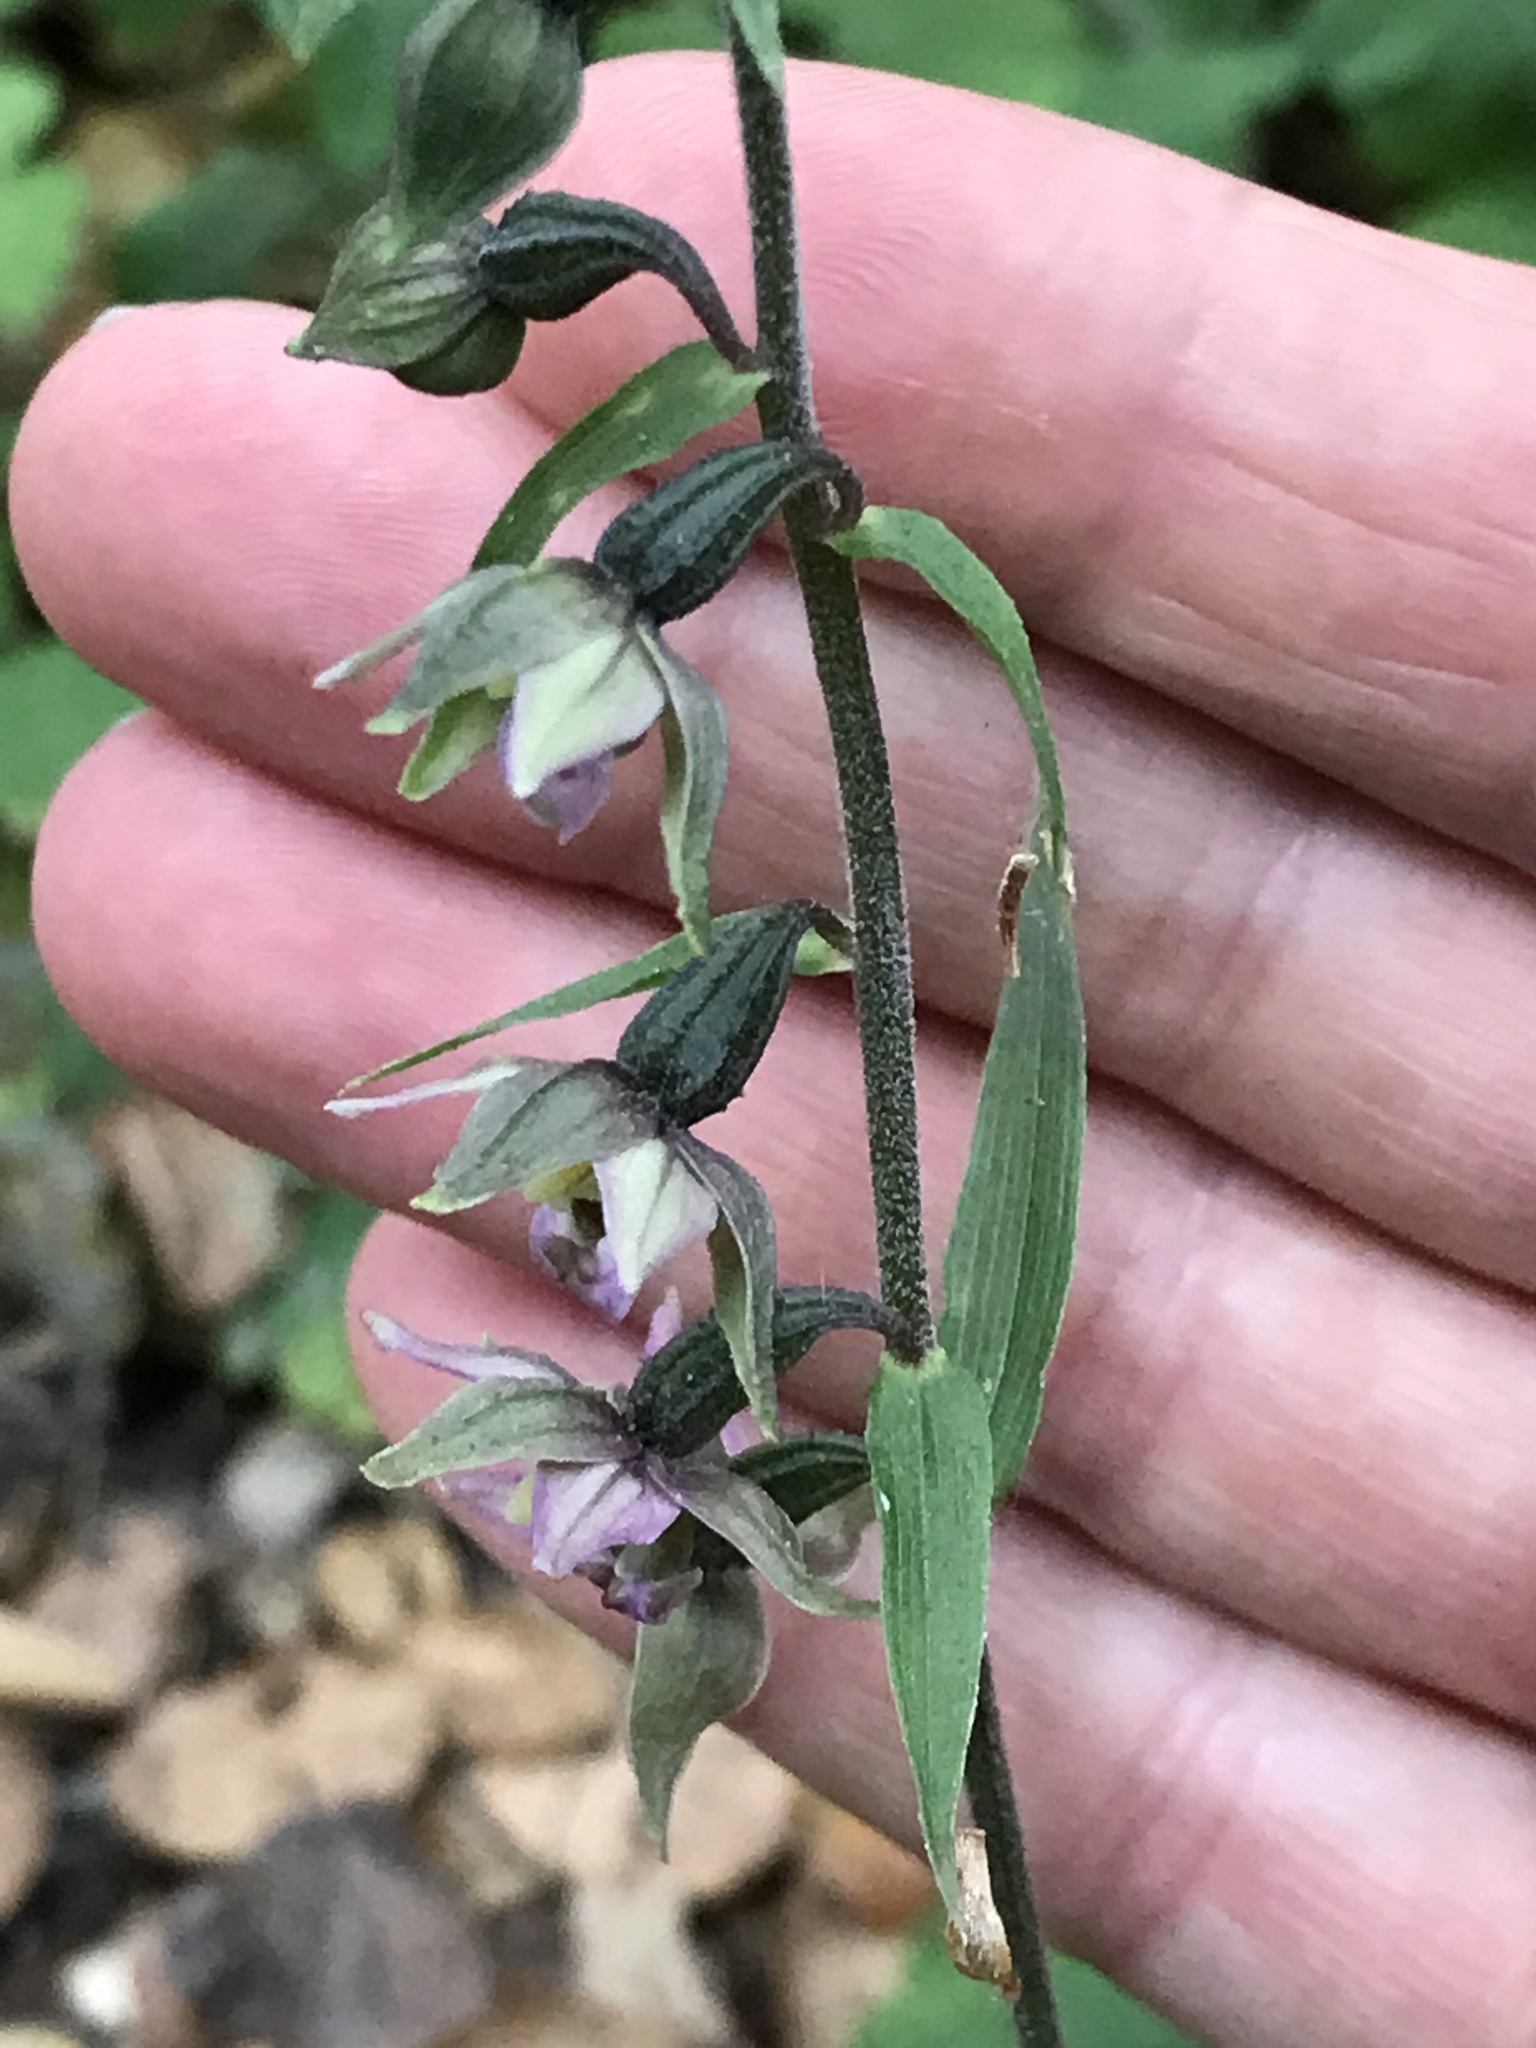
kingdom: Plantae
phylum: Tracheophyta
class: Liliopsida
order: Asparagales
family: Orchidaceae
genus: Epipactis
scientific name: Epipactis helleborine
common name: Broad-leaved helleborine
